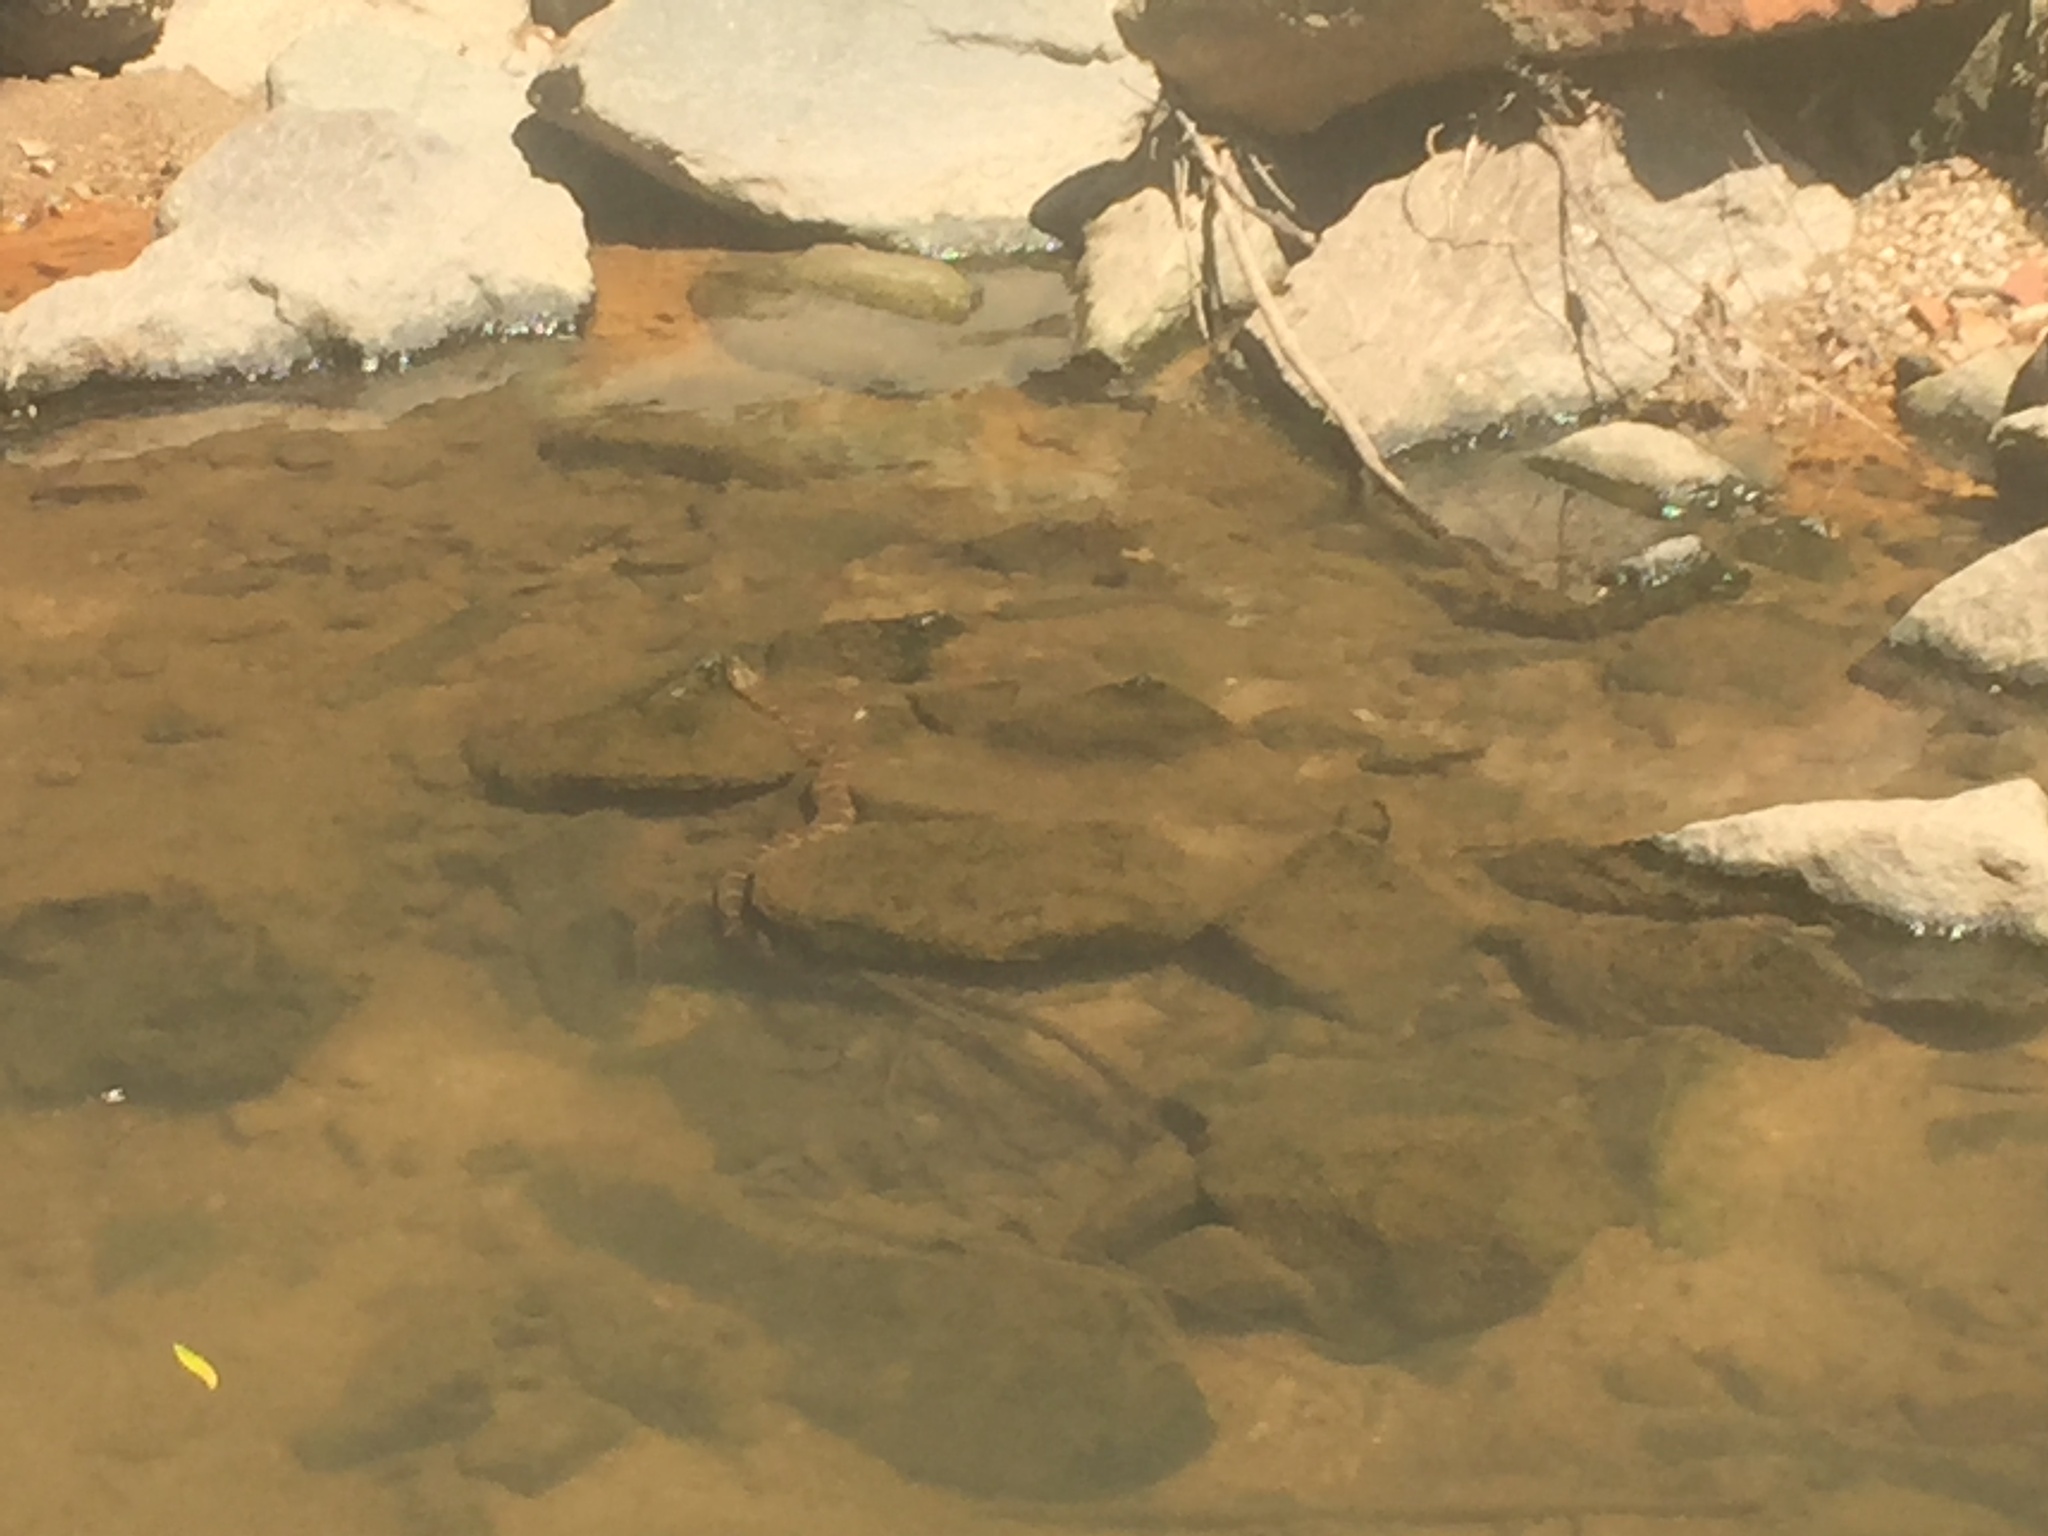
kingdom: Animalia
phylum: Chordata
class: Squamata
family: Colubridae
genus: Nerodia
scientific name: Nerodia sipedon
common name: Northern water snake
